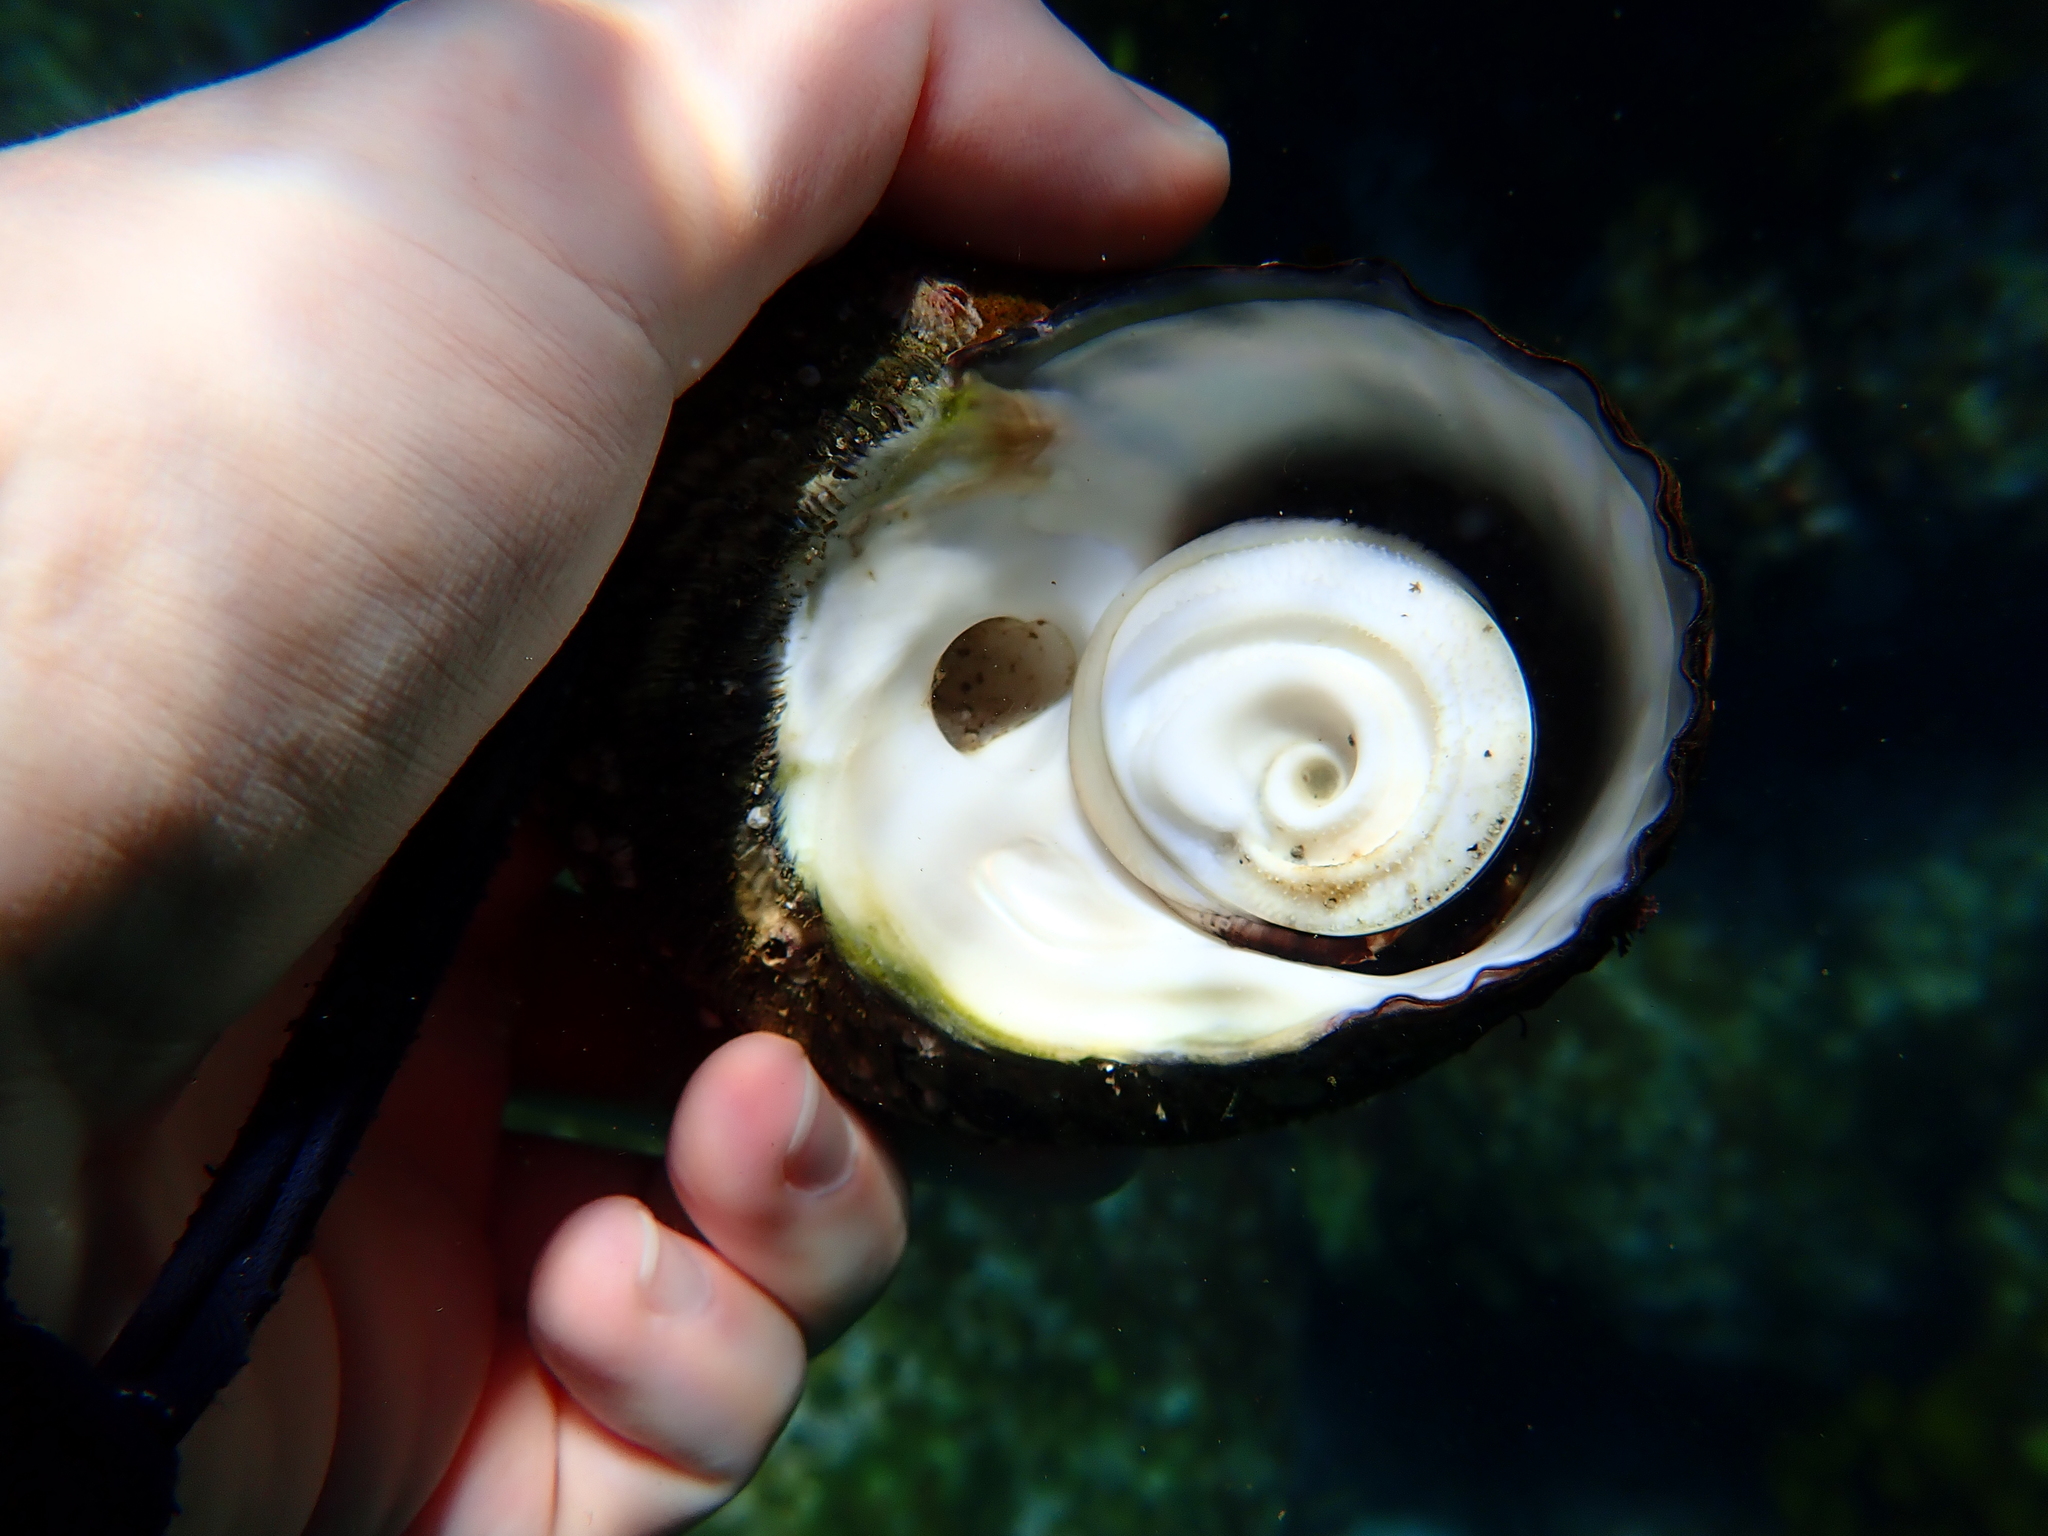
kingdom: Animalia
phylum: Mollusca
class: Gastropoda
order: Trochida
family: Turbinidae
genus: Lunella
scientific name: Lunella torquata
